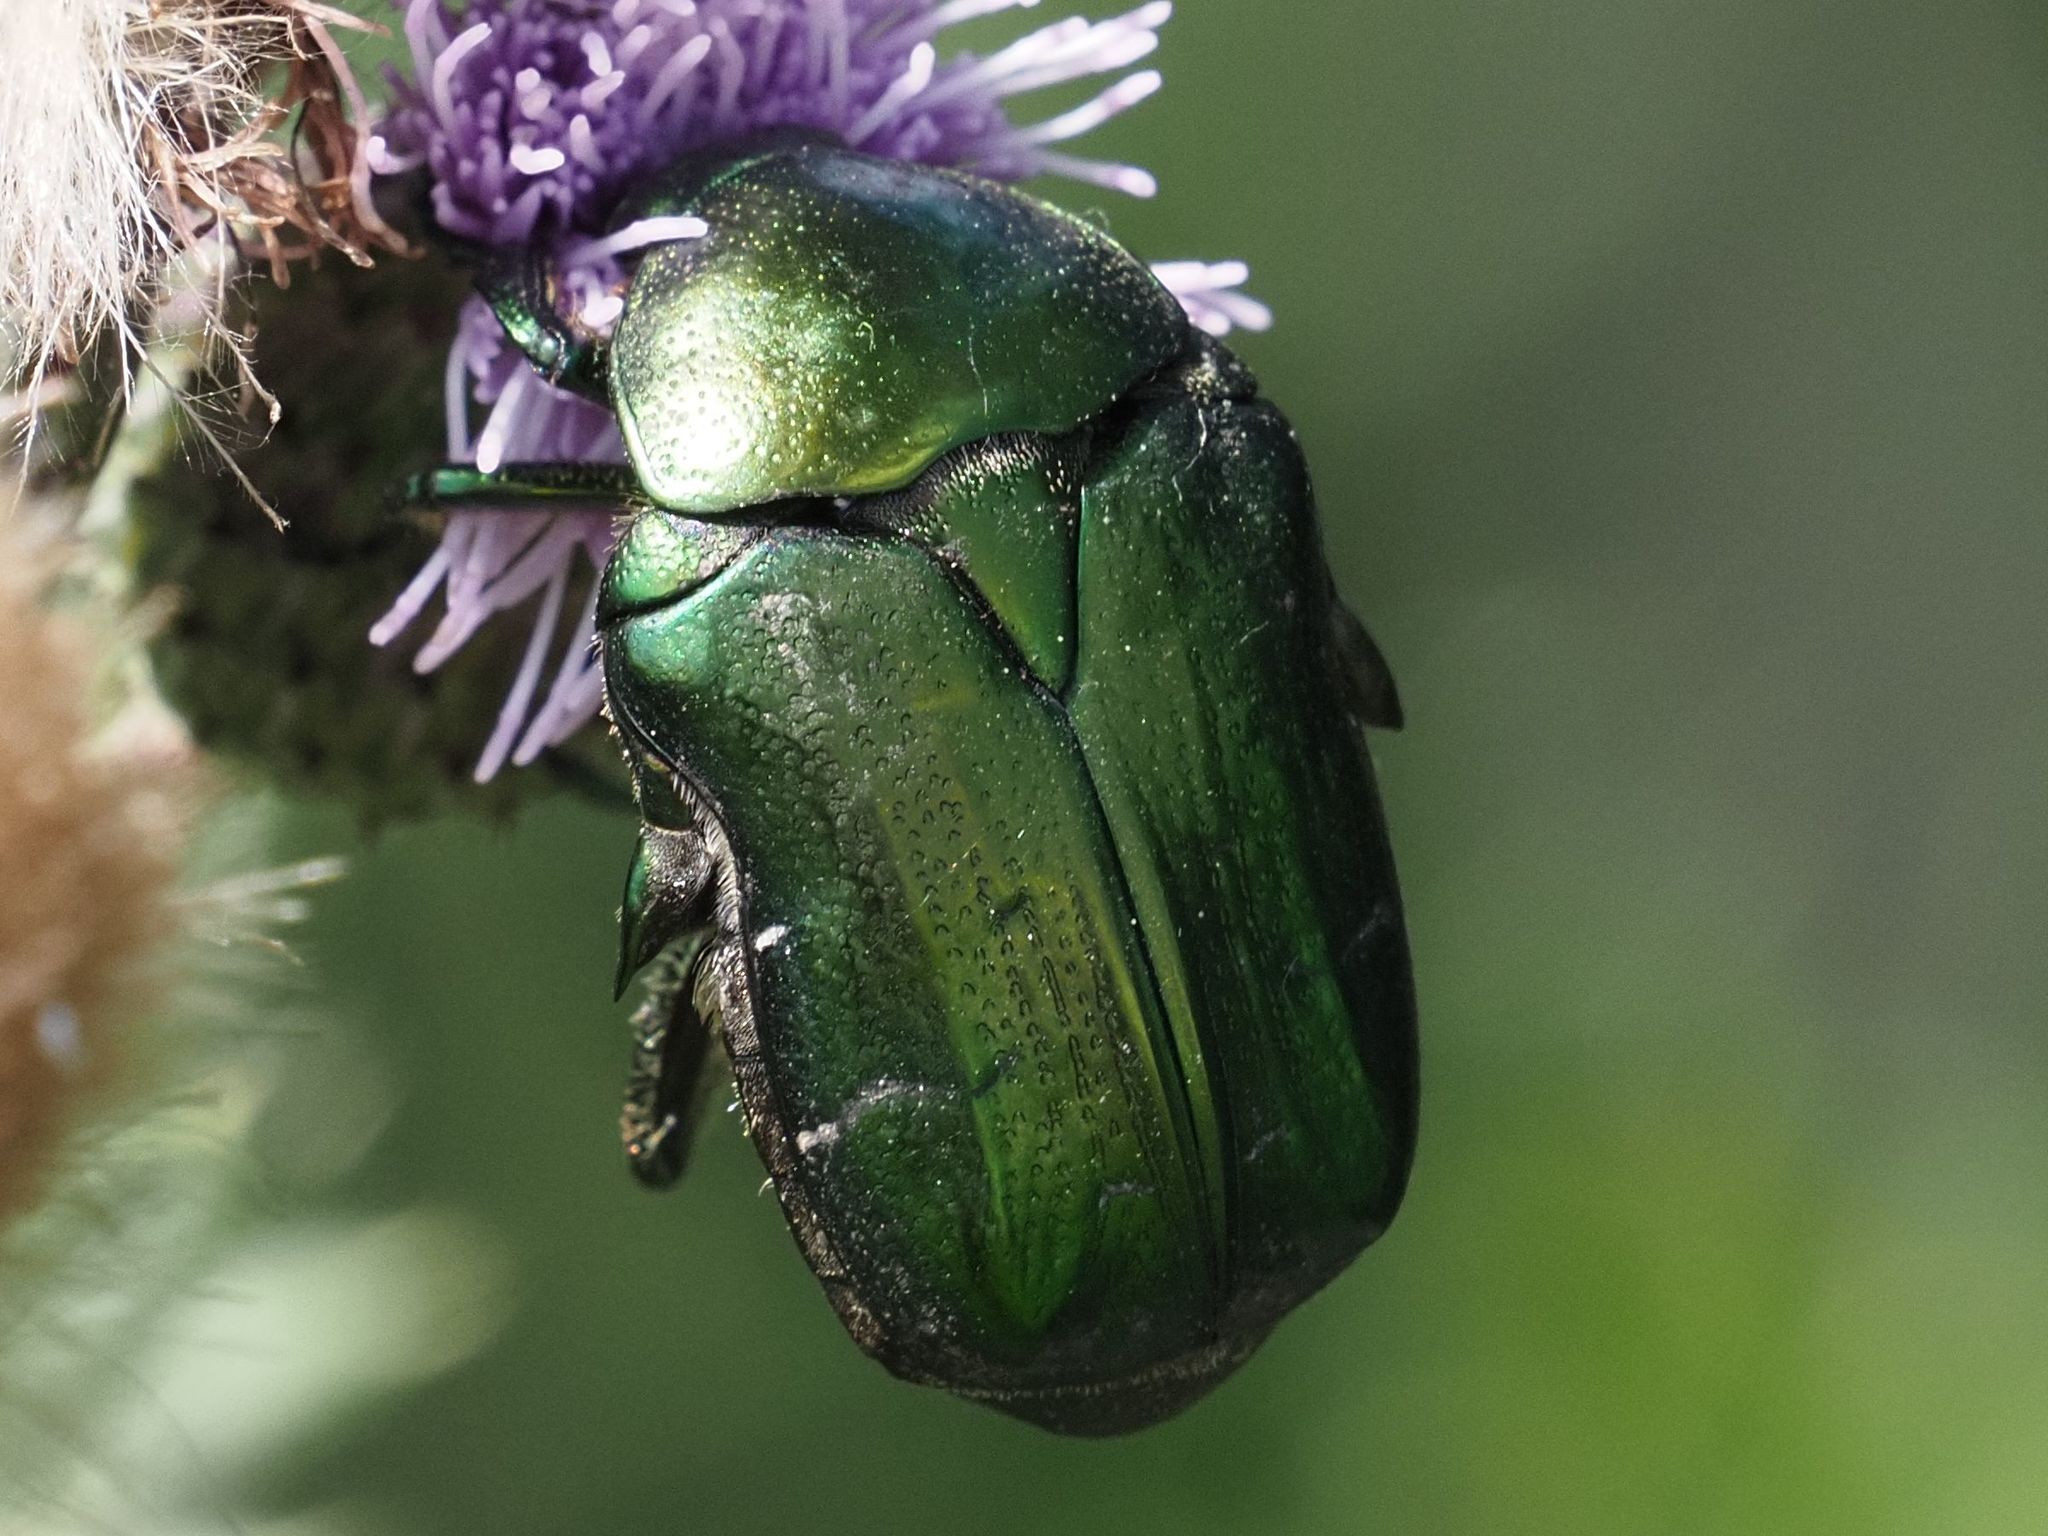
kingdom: Animalia
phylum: Arthropoda
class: Insecta
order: Coleoptera
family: Scarabaeidae
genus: Cetonia
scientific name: Cetonia aurata
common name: Rose chafer
